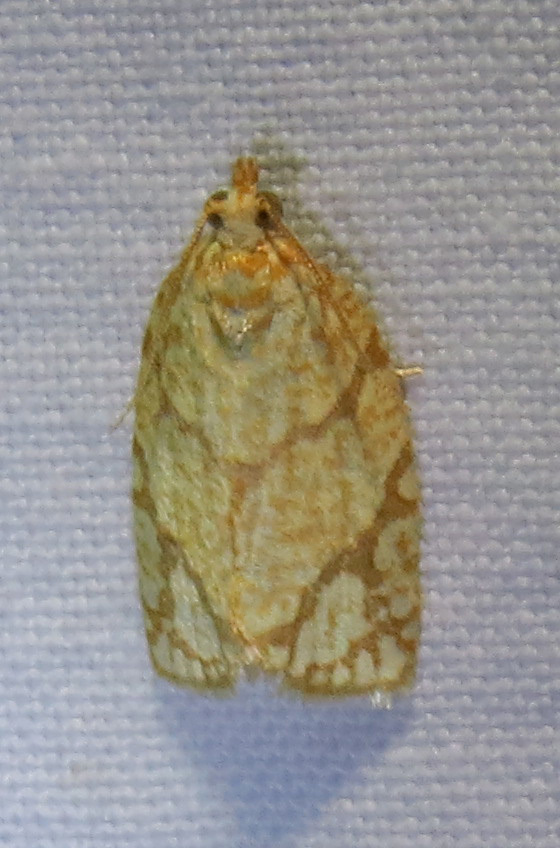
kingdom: Animalia
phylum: Arthropoda
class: Insecta
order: Lepidoptera
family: Tortricidae
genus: Argyrotaenia
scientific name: Argyrotaenia quercifoliana
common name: Yellow-winged oak leafroller moth
